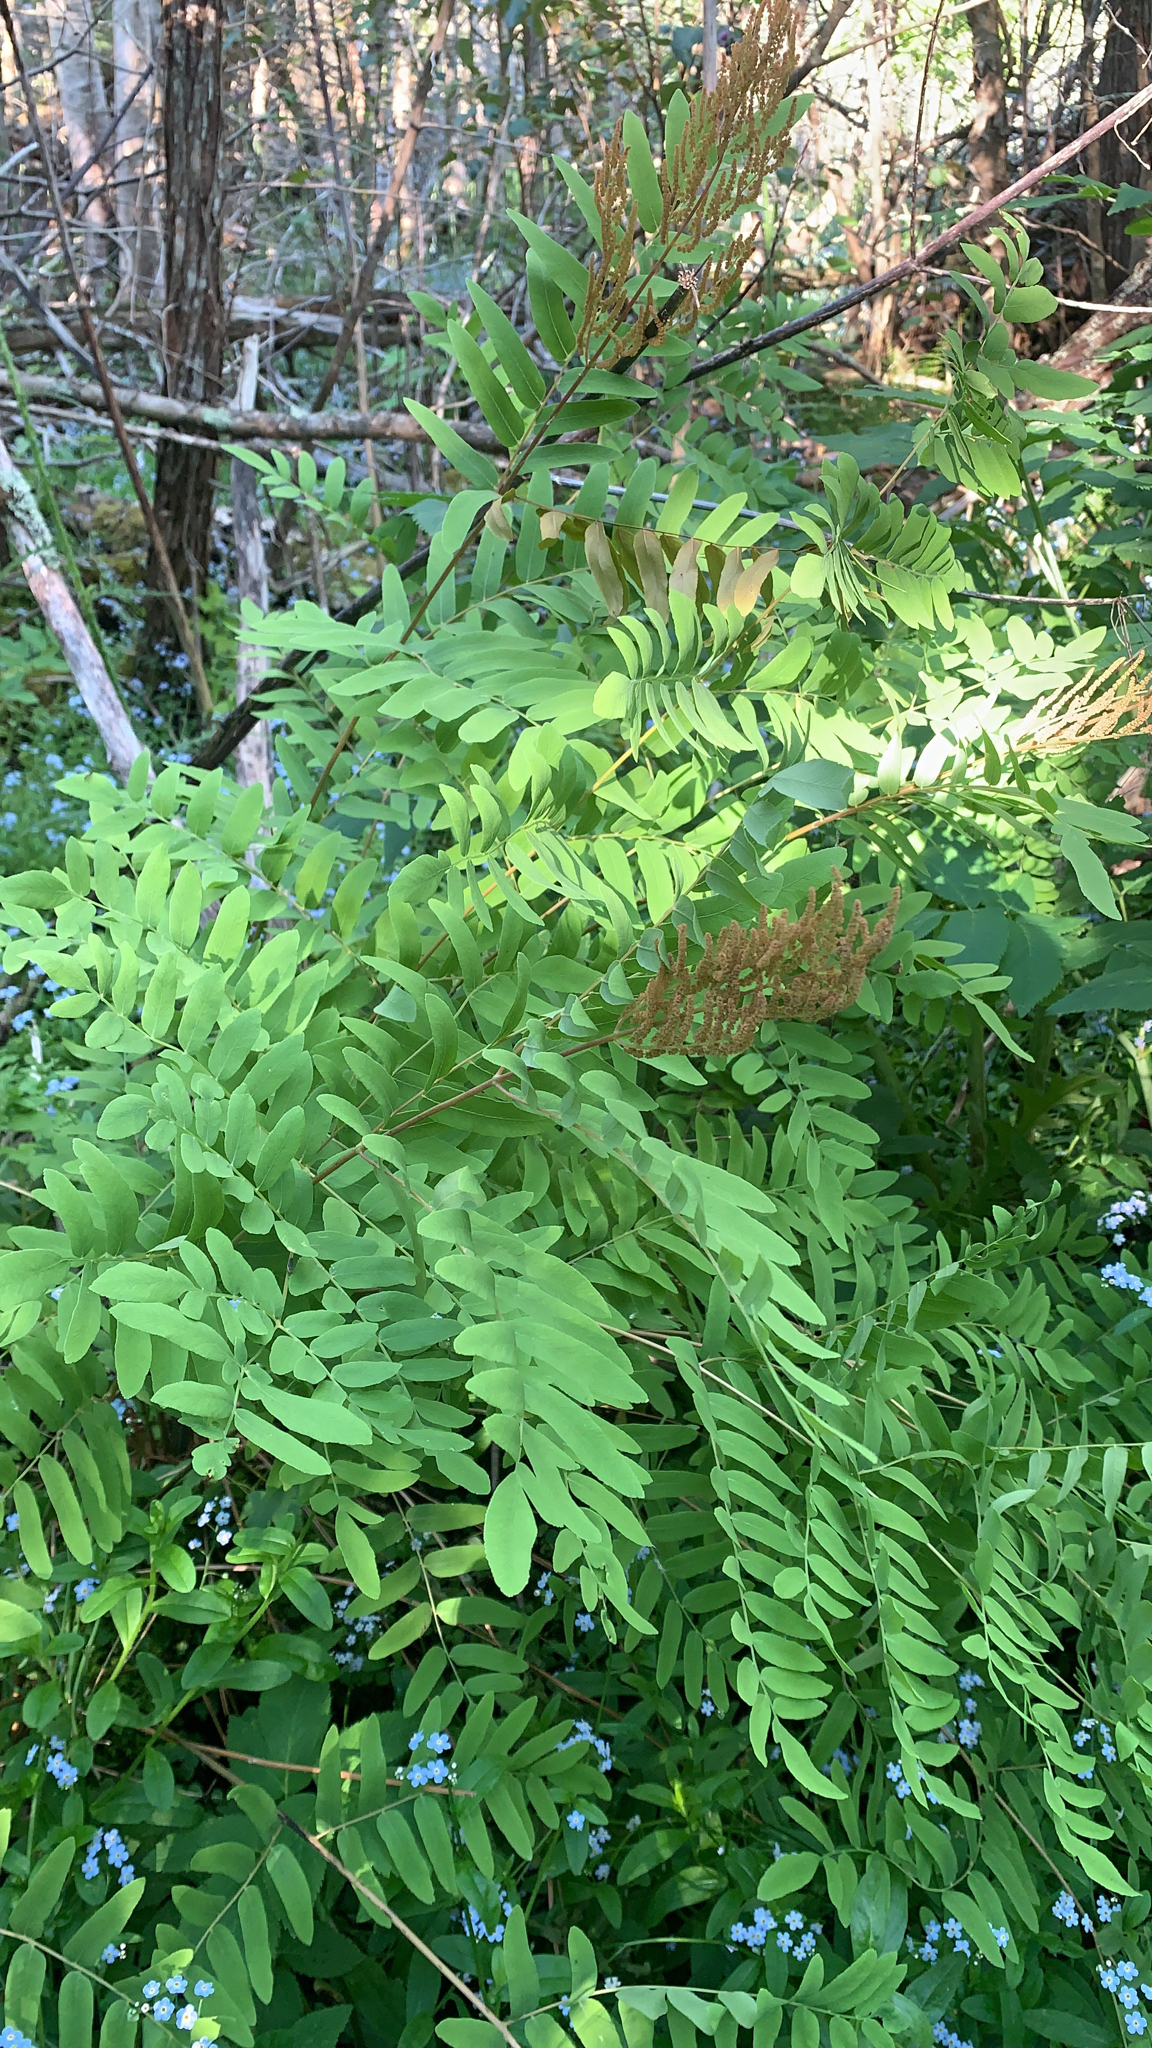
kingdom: Plantae
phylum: Tracheophyta
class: Polypodiopsida
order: Osmundales
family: Osmundaceae
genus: Osmunda
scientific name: Osmunda spectabilis
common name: American royal fern
